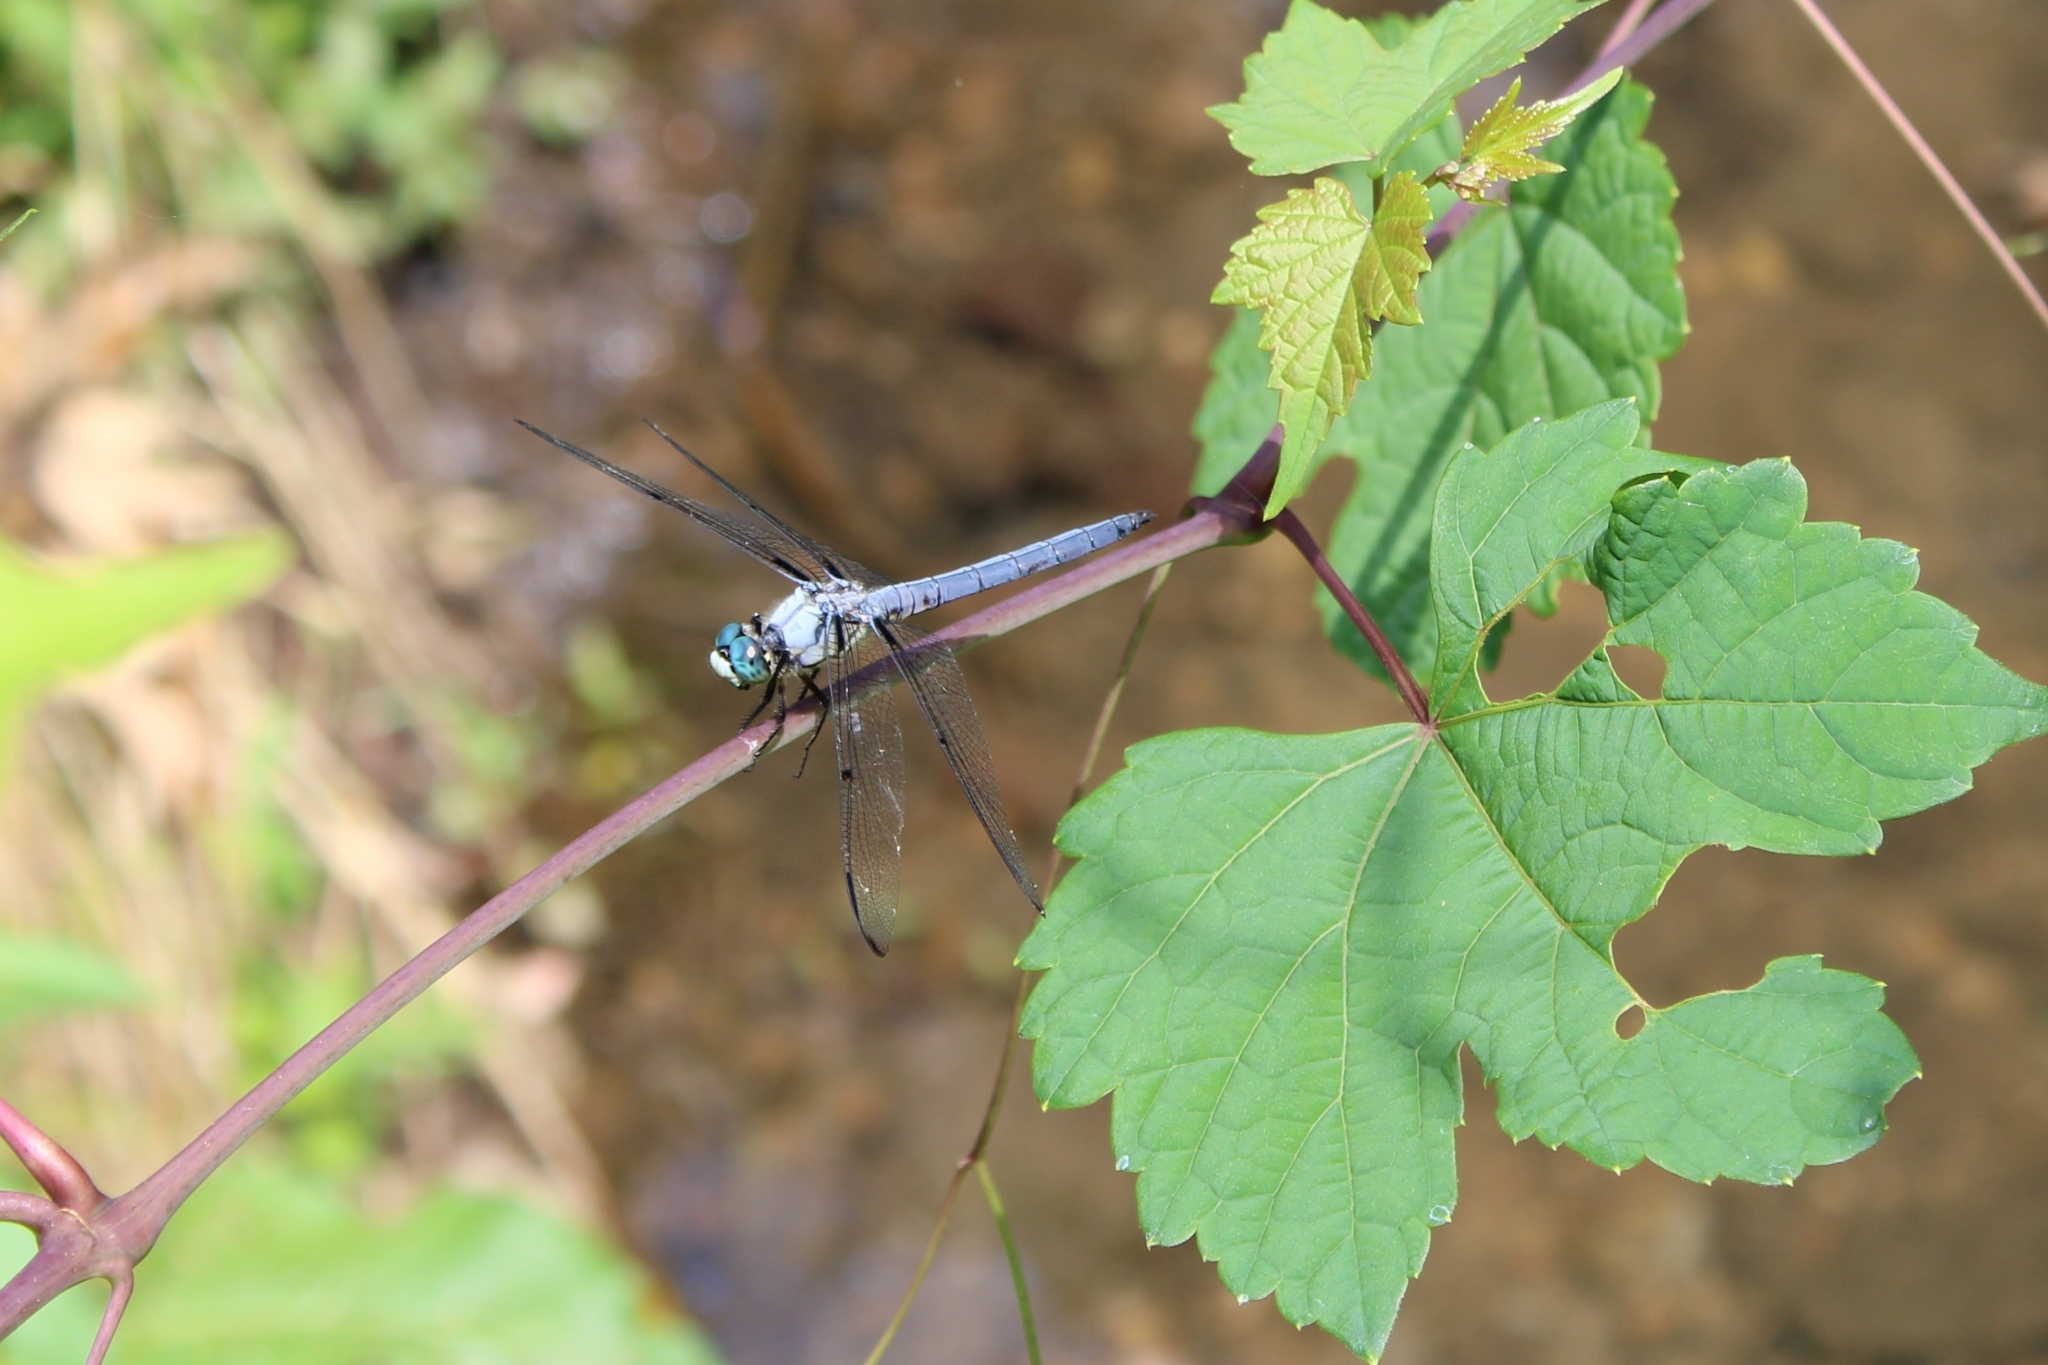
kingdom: Animalia
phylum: Arthropoda
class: Insecta
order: Odonata
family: Libellulidae
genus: Libellula
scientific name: Libellula vibrans
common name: Great blue skimmer
